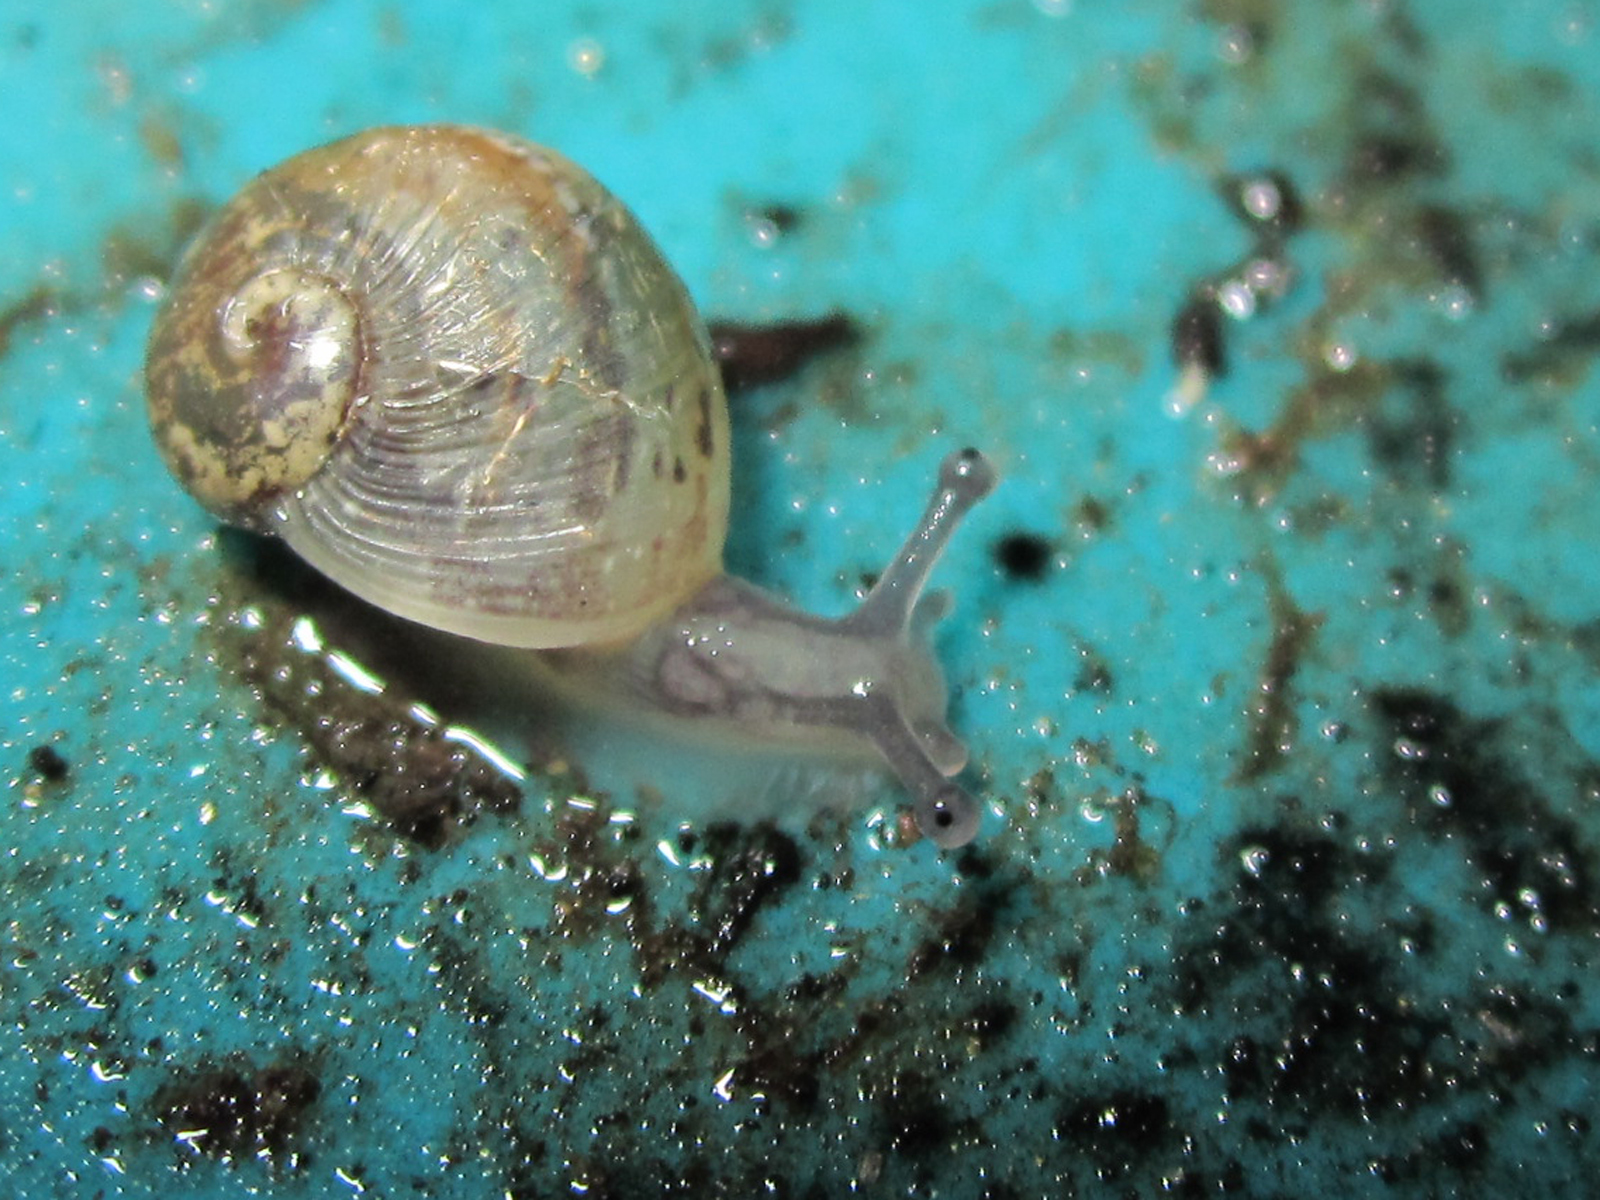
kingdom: Animalia
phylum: Mollusca
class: Gastropoda
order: Stylommatophora
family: Helicidae
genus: Cornu
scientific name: Cornu aspersum
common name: Brown garden snail
